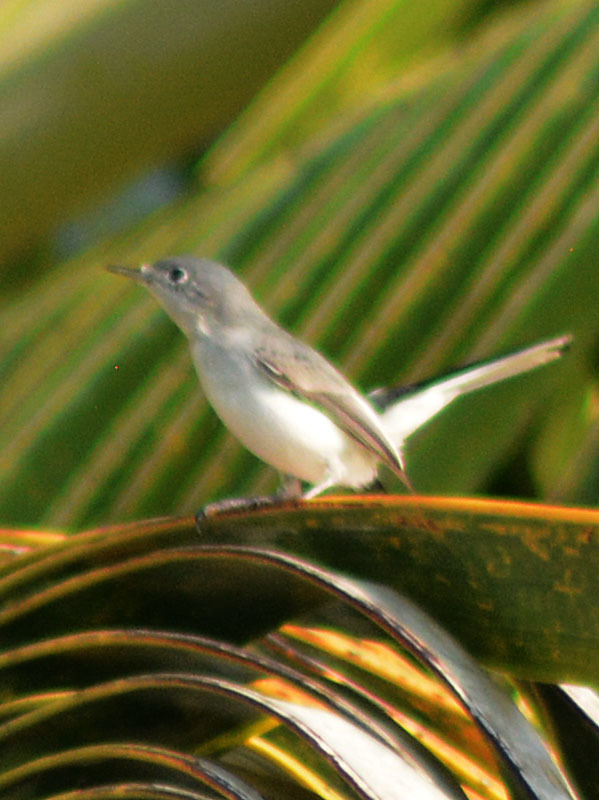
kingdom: Animalia
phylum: Chordata
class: Aves
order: Passeriformes
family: Polioptilidae
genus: Polioptila
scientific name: Polioptila caerulea
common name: Blue-gray gnatcatcher
